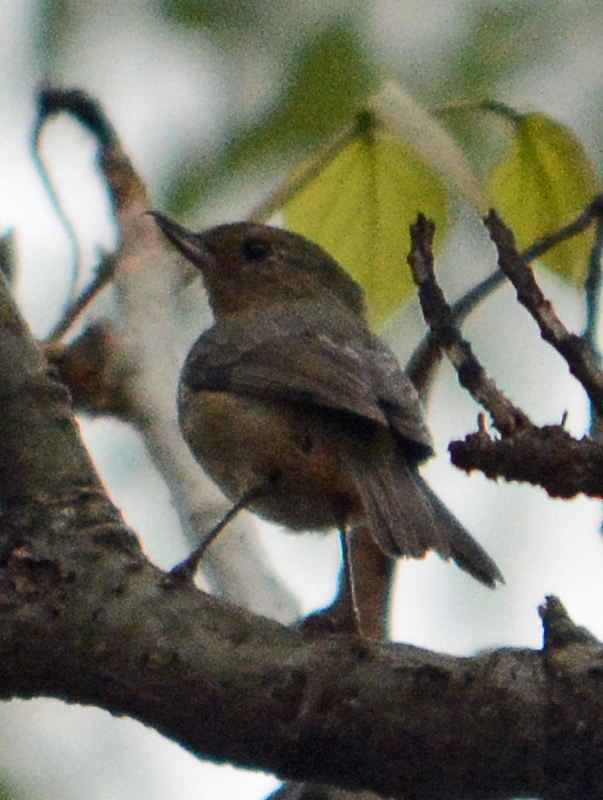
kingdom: Animalia
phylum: Chordata
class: Aves
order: Passeriformes
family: Thraupidae
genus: Diglossa
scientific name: Diglossa baritula
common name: Cinnamon-bellied flowerpiercer
